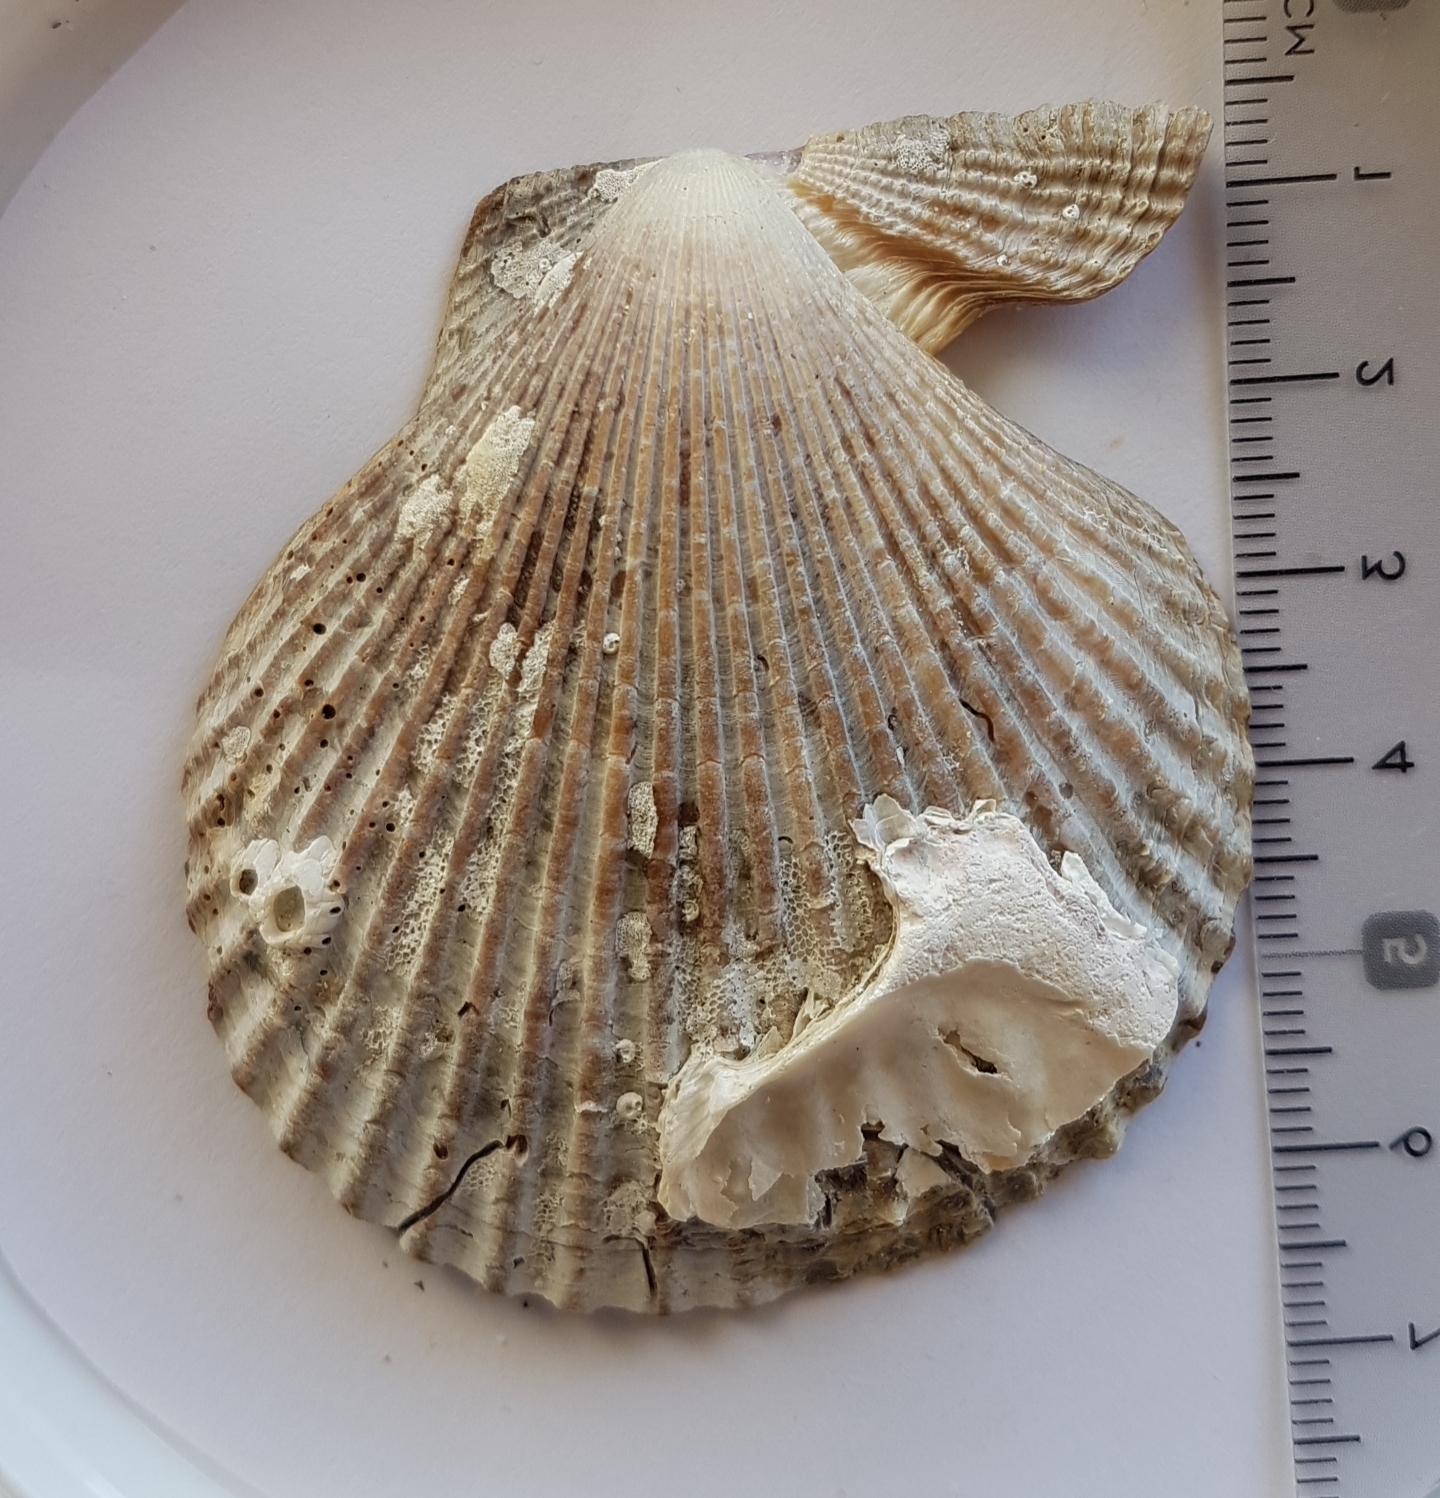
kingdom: Animalia
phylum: Mollusca
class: Bivalvia
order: Pectinida
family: Pectinidae
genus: Mimachlamys
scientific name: Mimachlamys varia
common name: Variegated scallop
